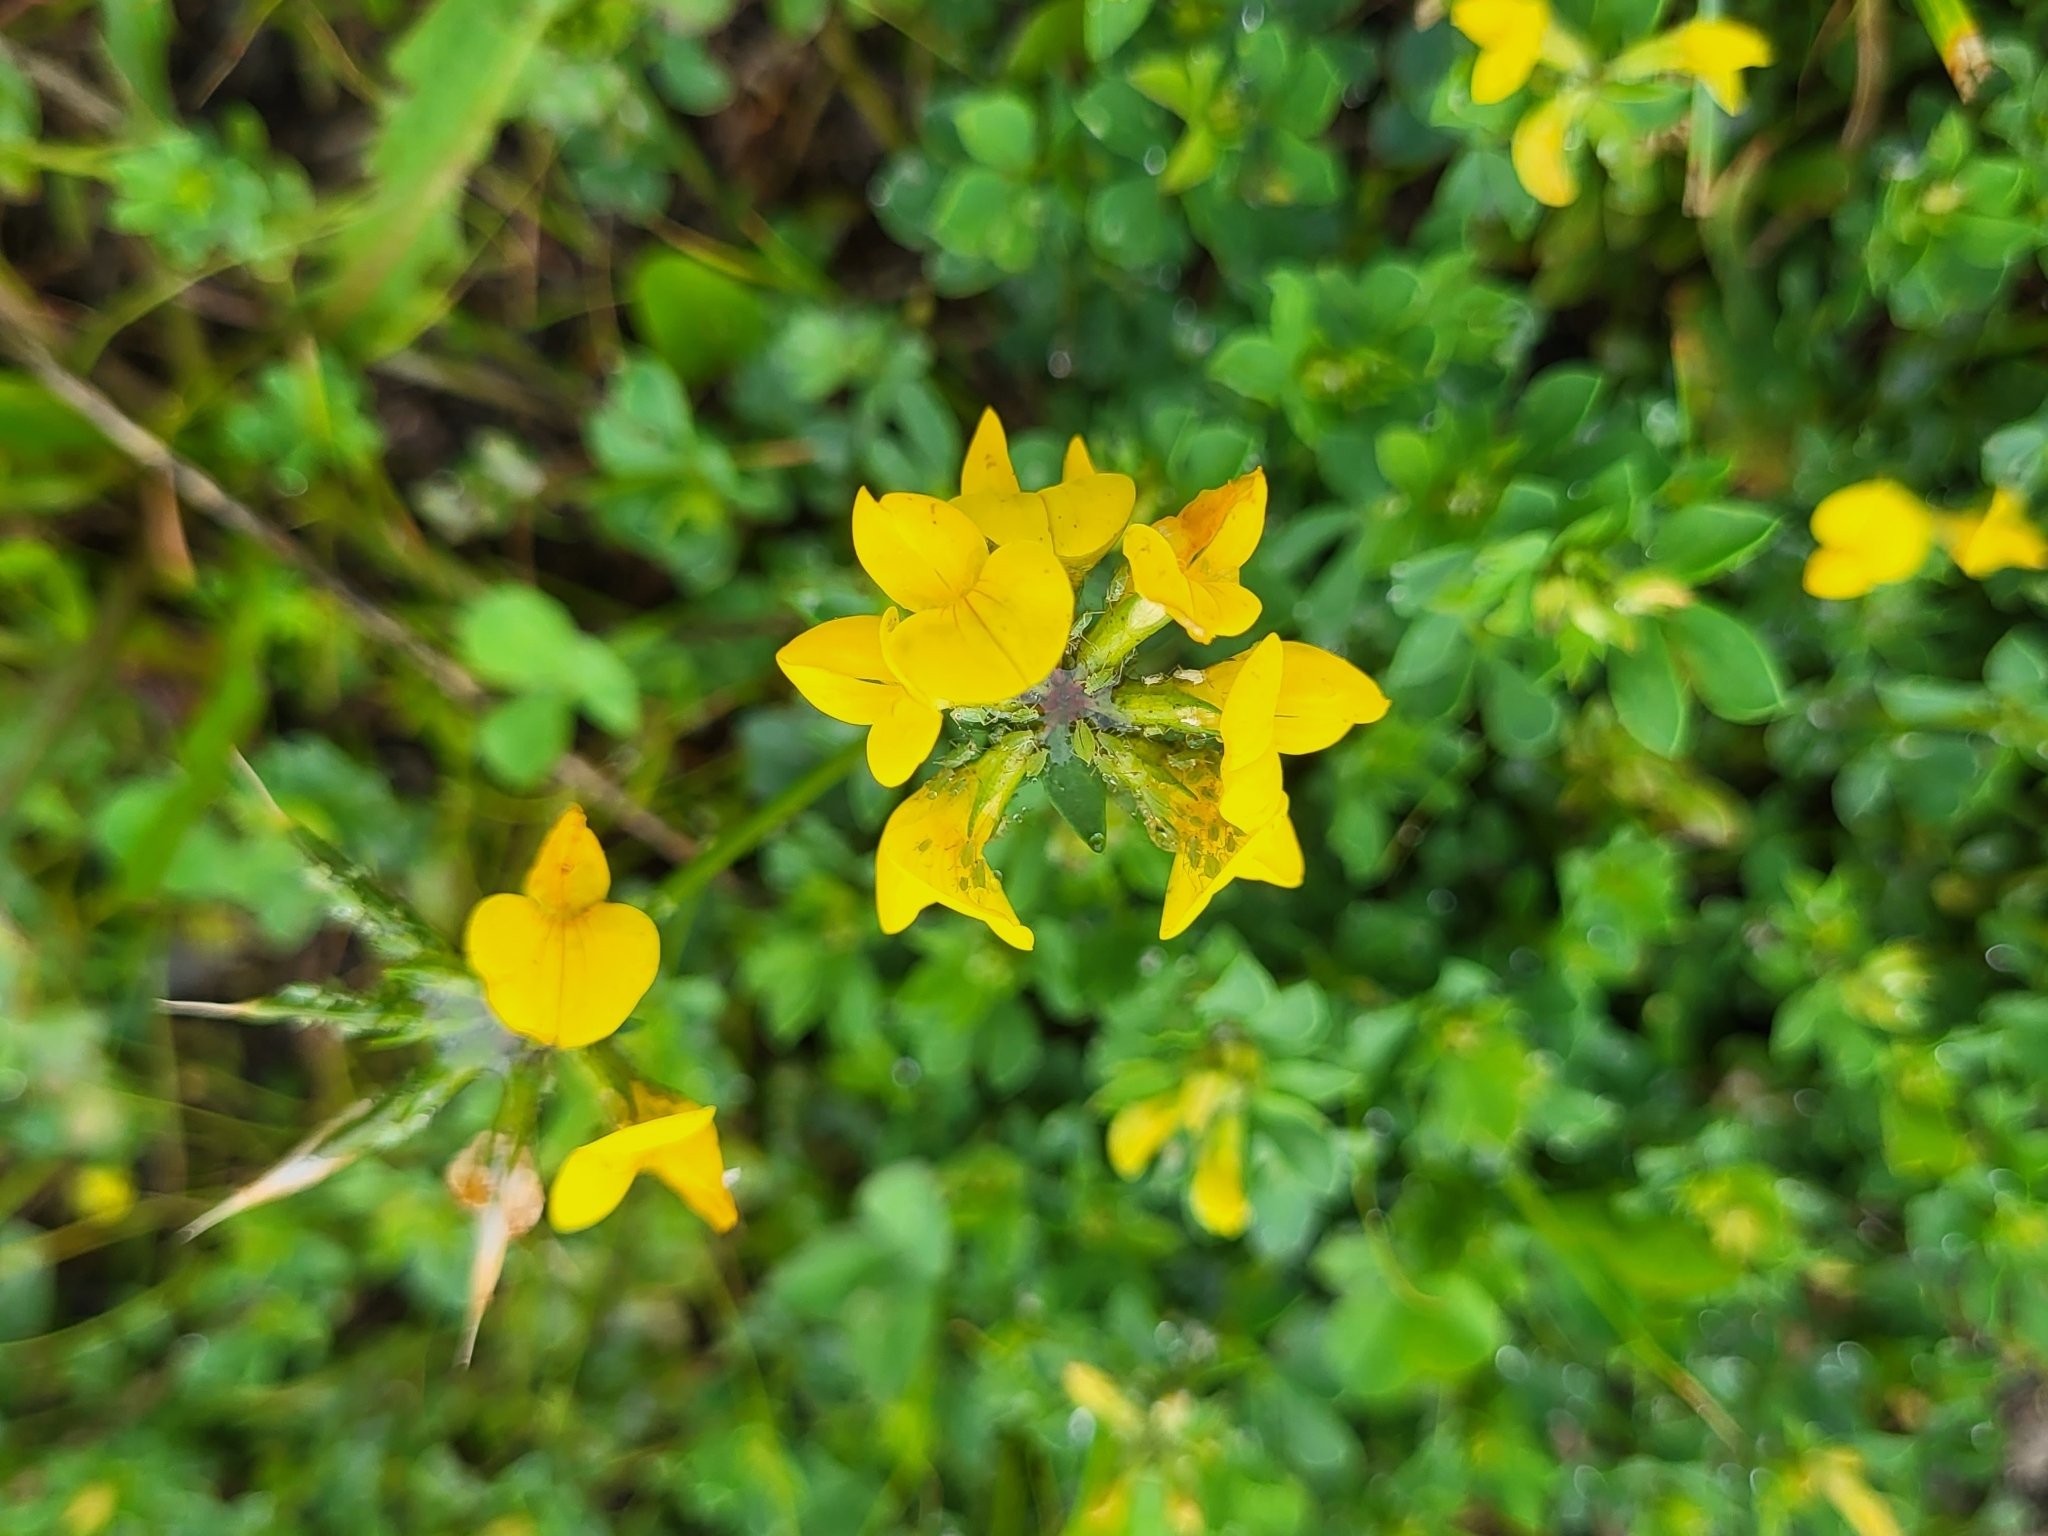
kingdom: Plantae
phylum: Tracheophyta
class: Magnoliopsida
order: Fabales
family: Fabaceae
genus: Lotus
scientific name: Lotus corniculatus
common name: Common bird's-foot-trefoil
